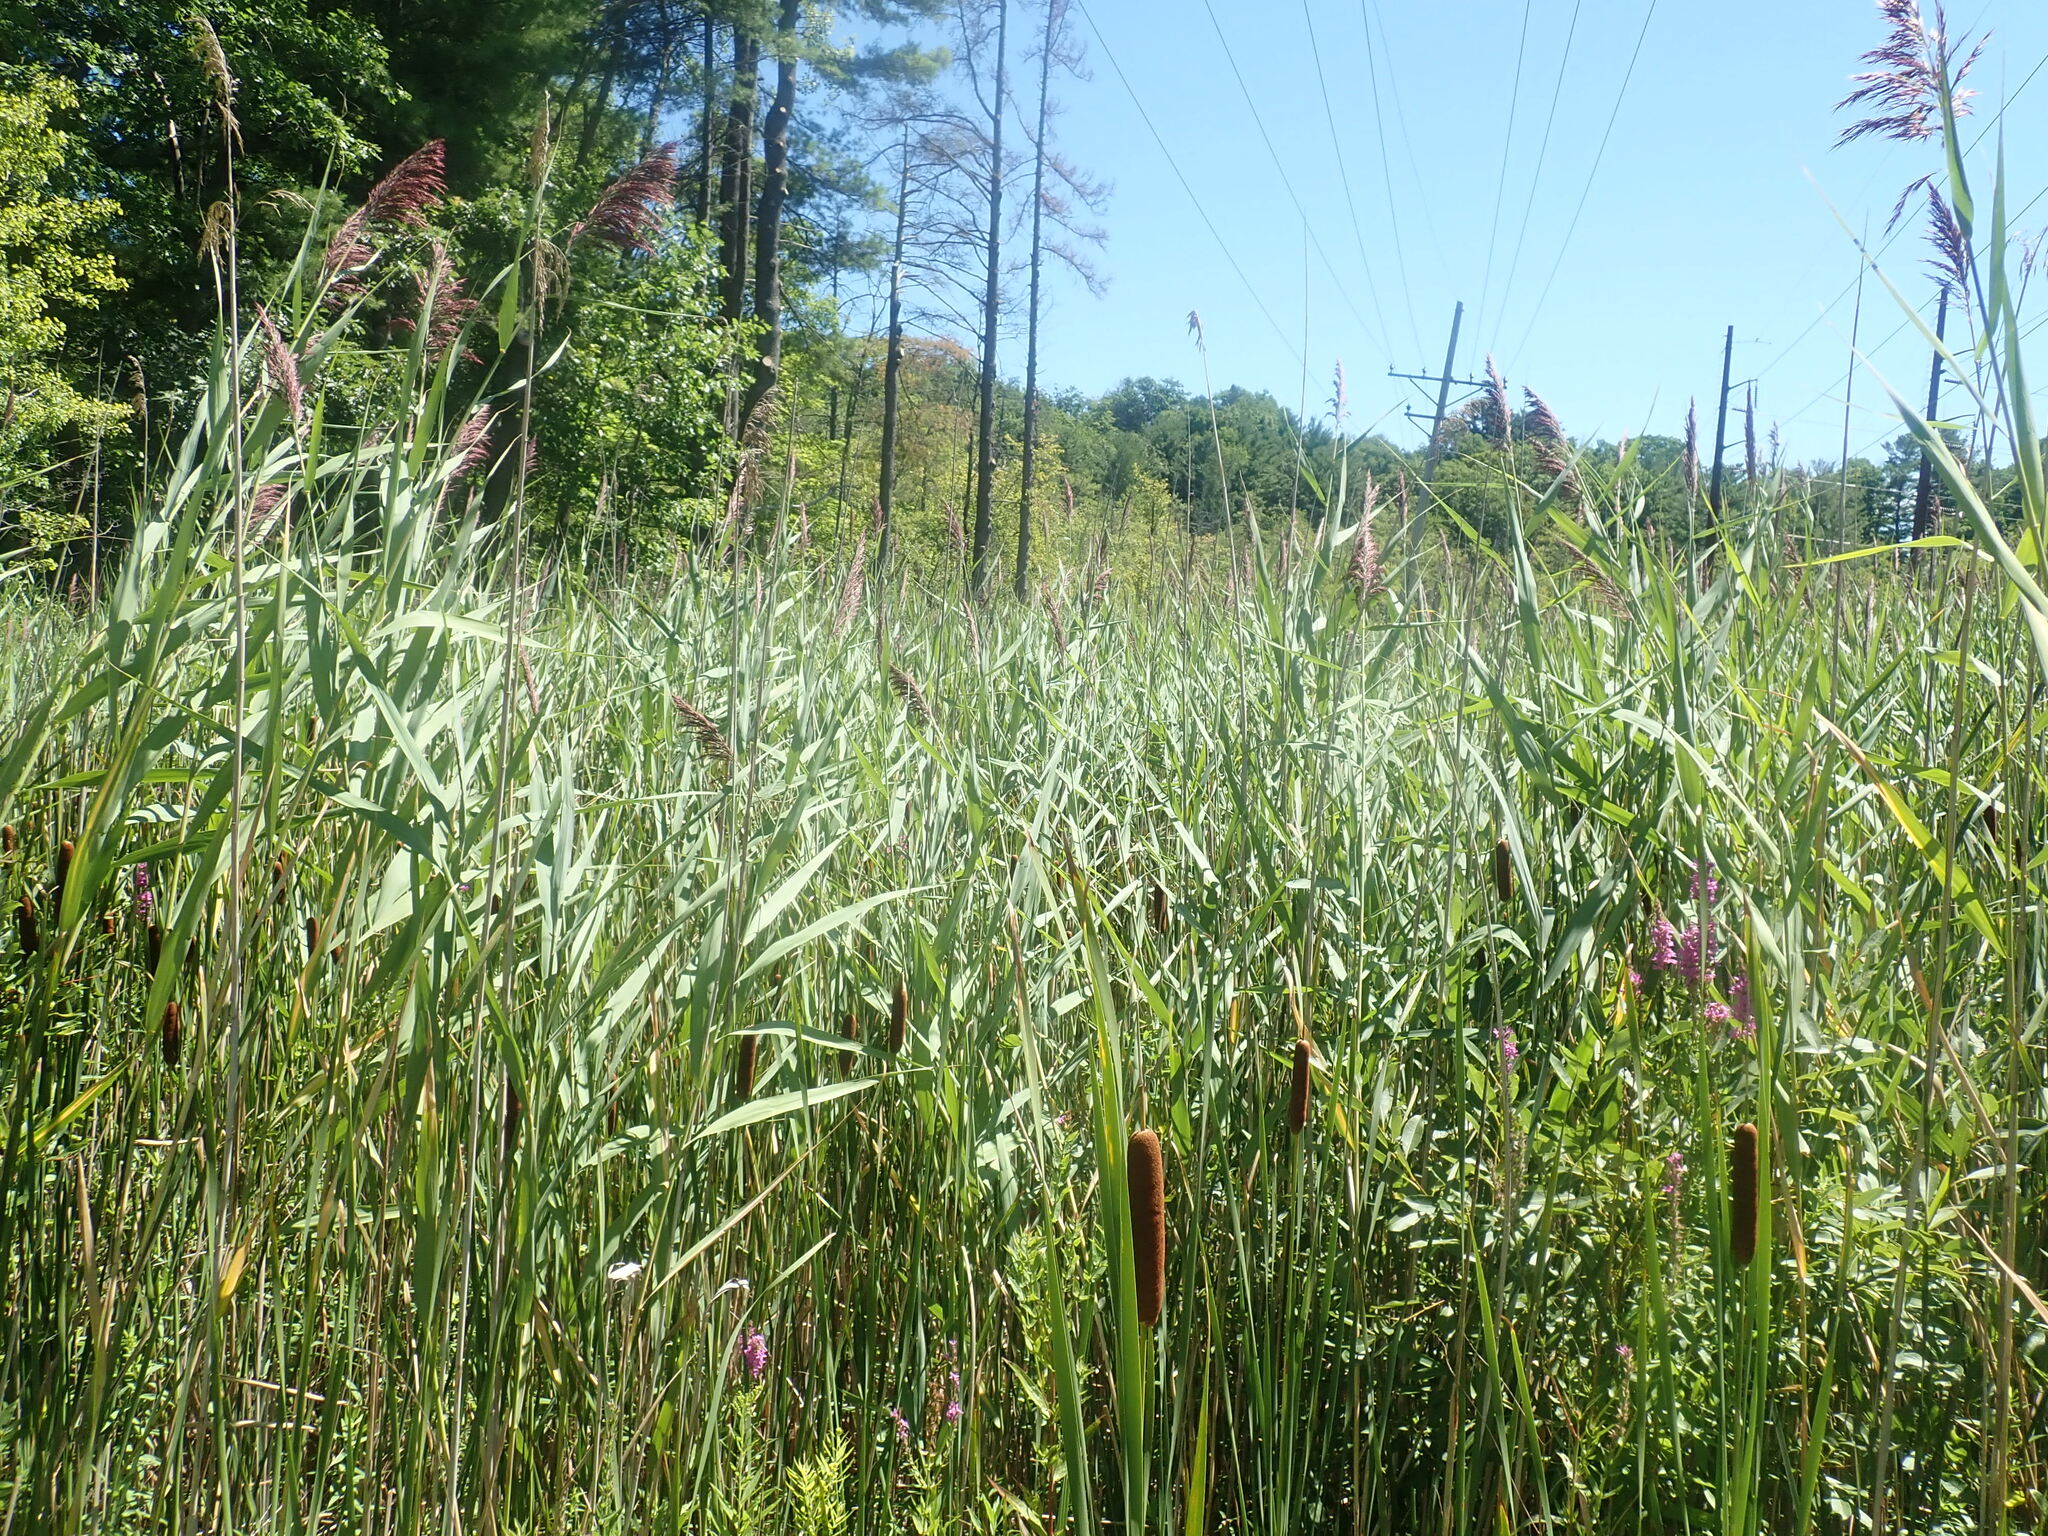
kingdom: Plantae
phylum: Tracheophyta
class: Liliopsida
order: Poales
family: Poaceae
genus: Phragmites
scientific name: Phragmites australis
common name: Common reed
